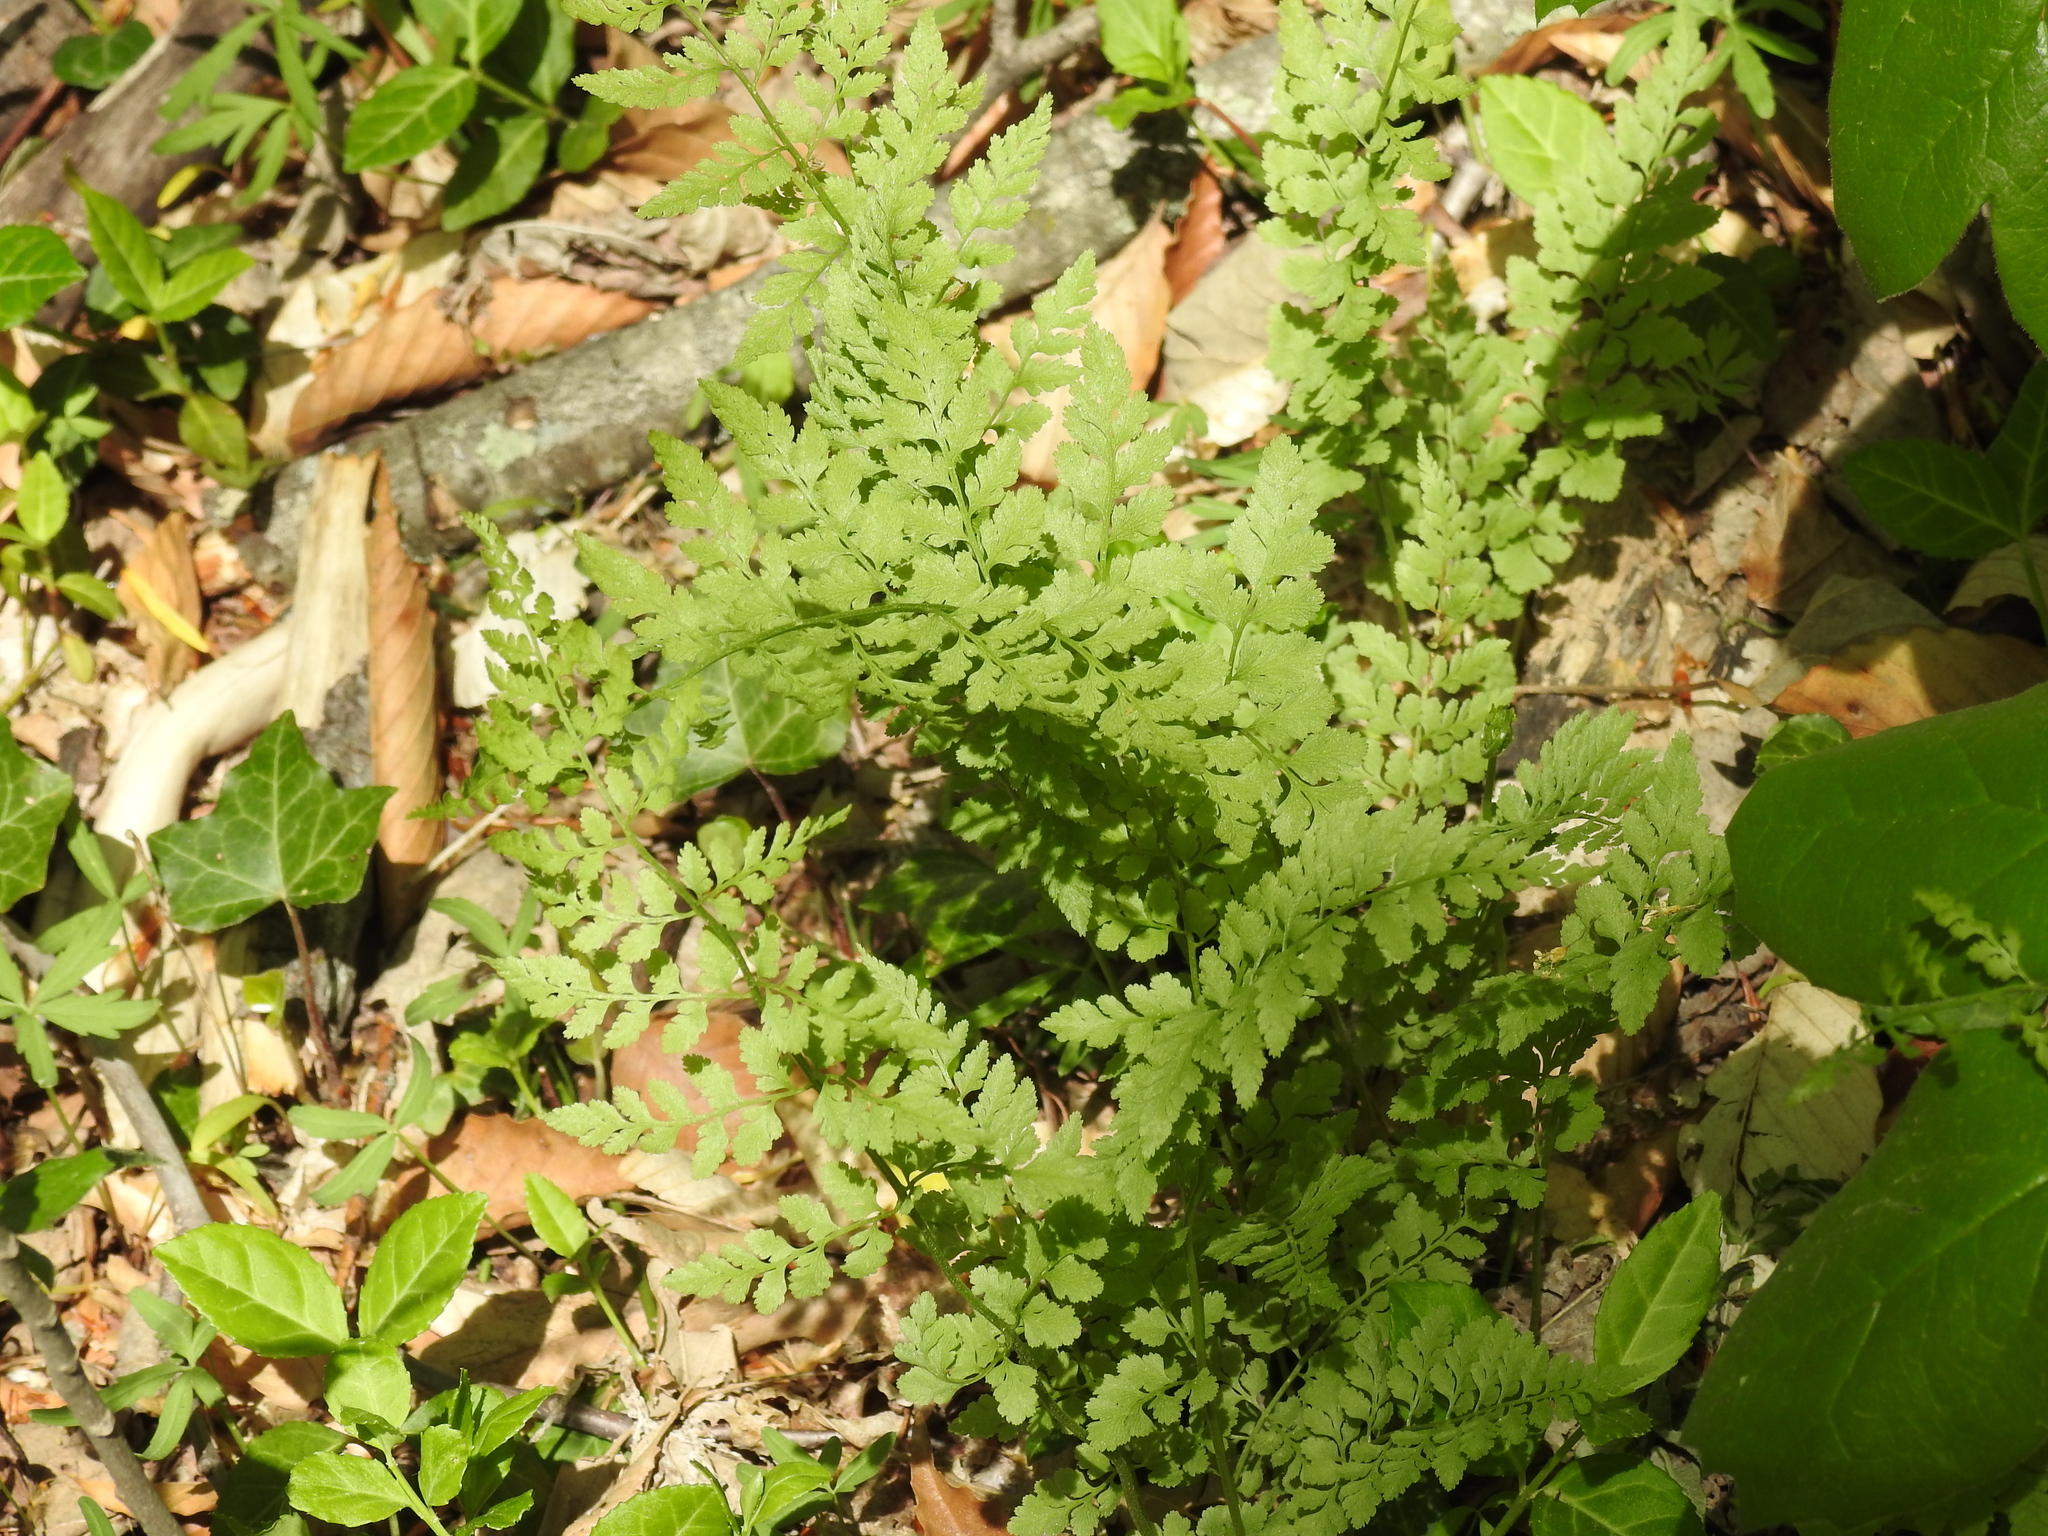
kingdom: Plantae
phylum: Tracheophyta
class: Polypodiopsida
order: Polypodiales
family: Cystopteridaceae
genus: Cystopteris
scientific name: Cystopteris protrusa
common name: Lowland brittle fern
